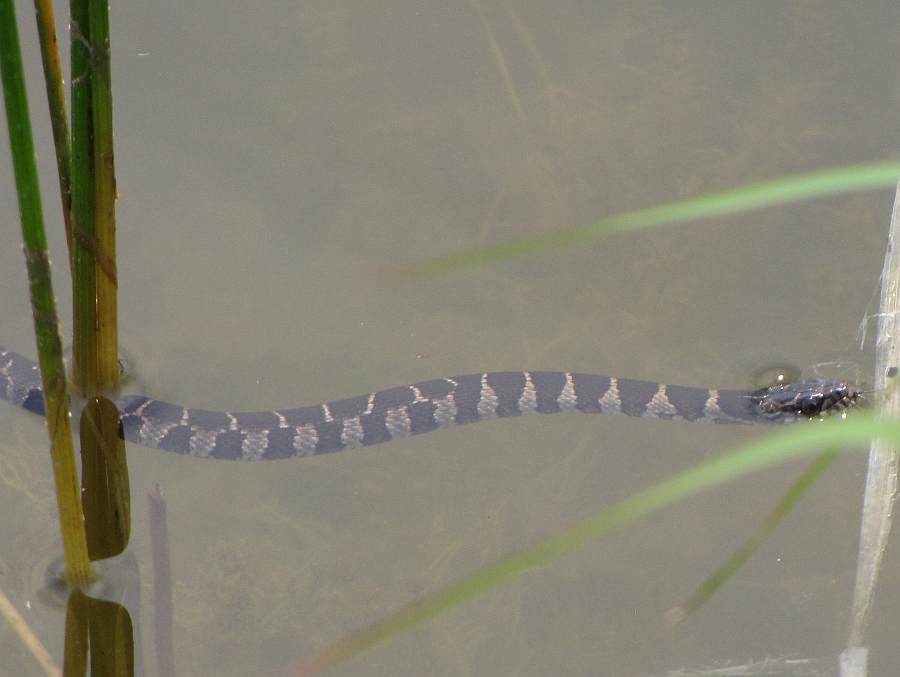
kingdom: Animalia
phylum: Chordata
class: Squamata
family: Colubridae
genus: Nerodia
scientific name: Nerodia sipedon
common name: Northern water snake
